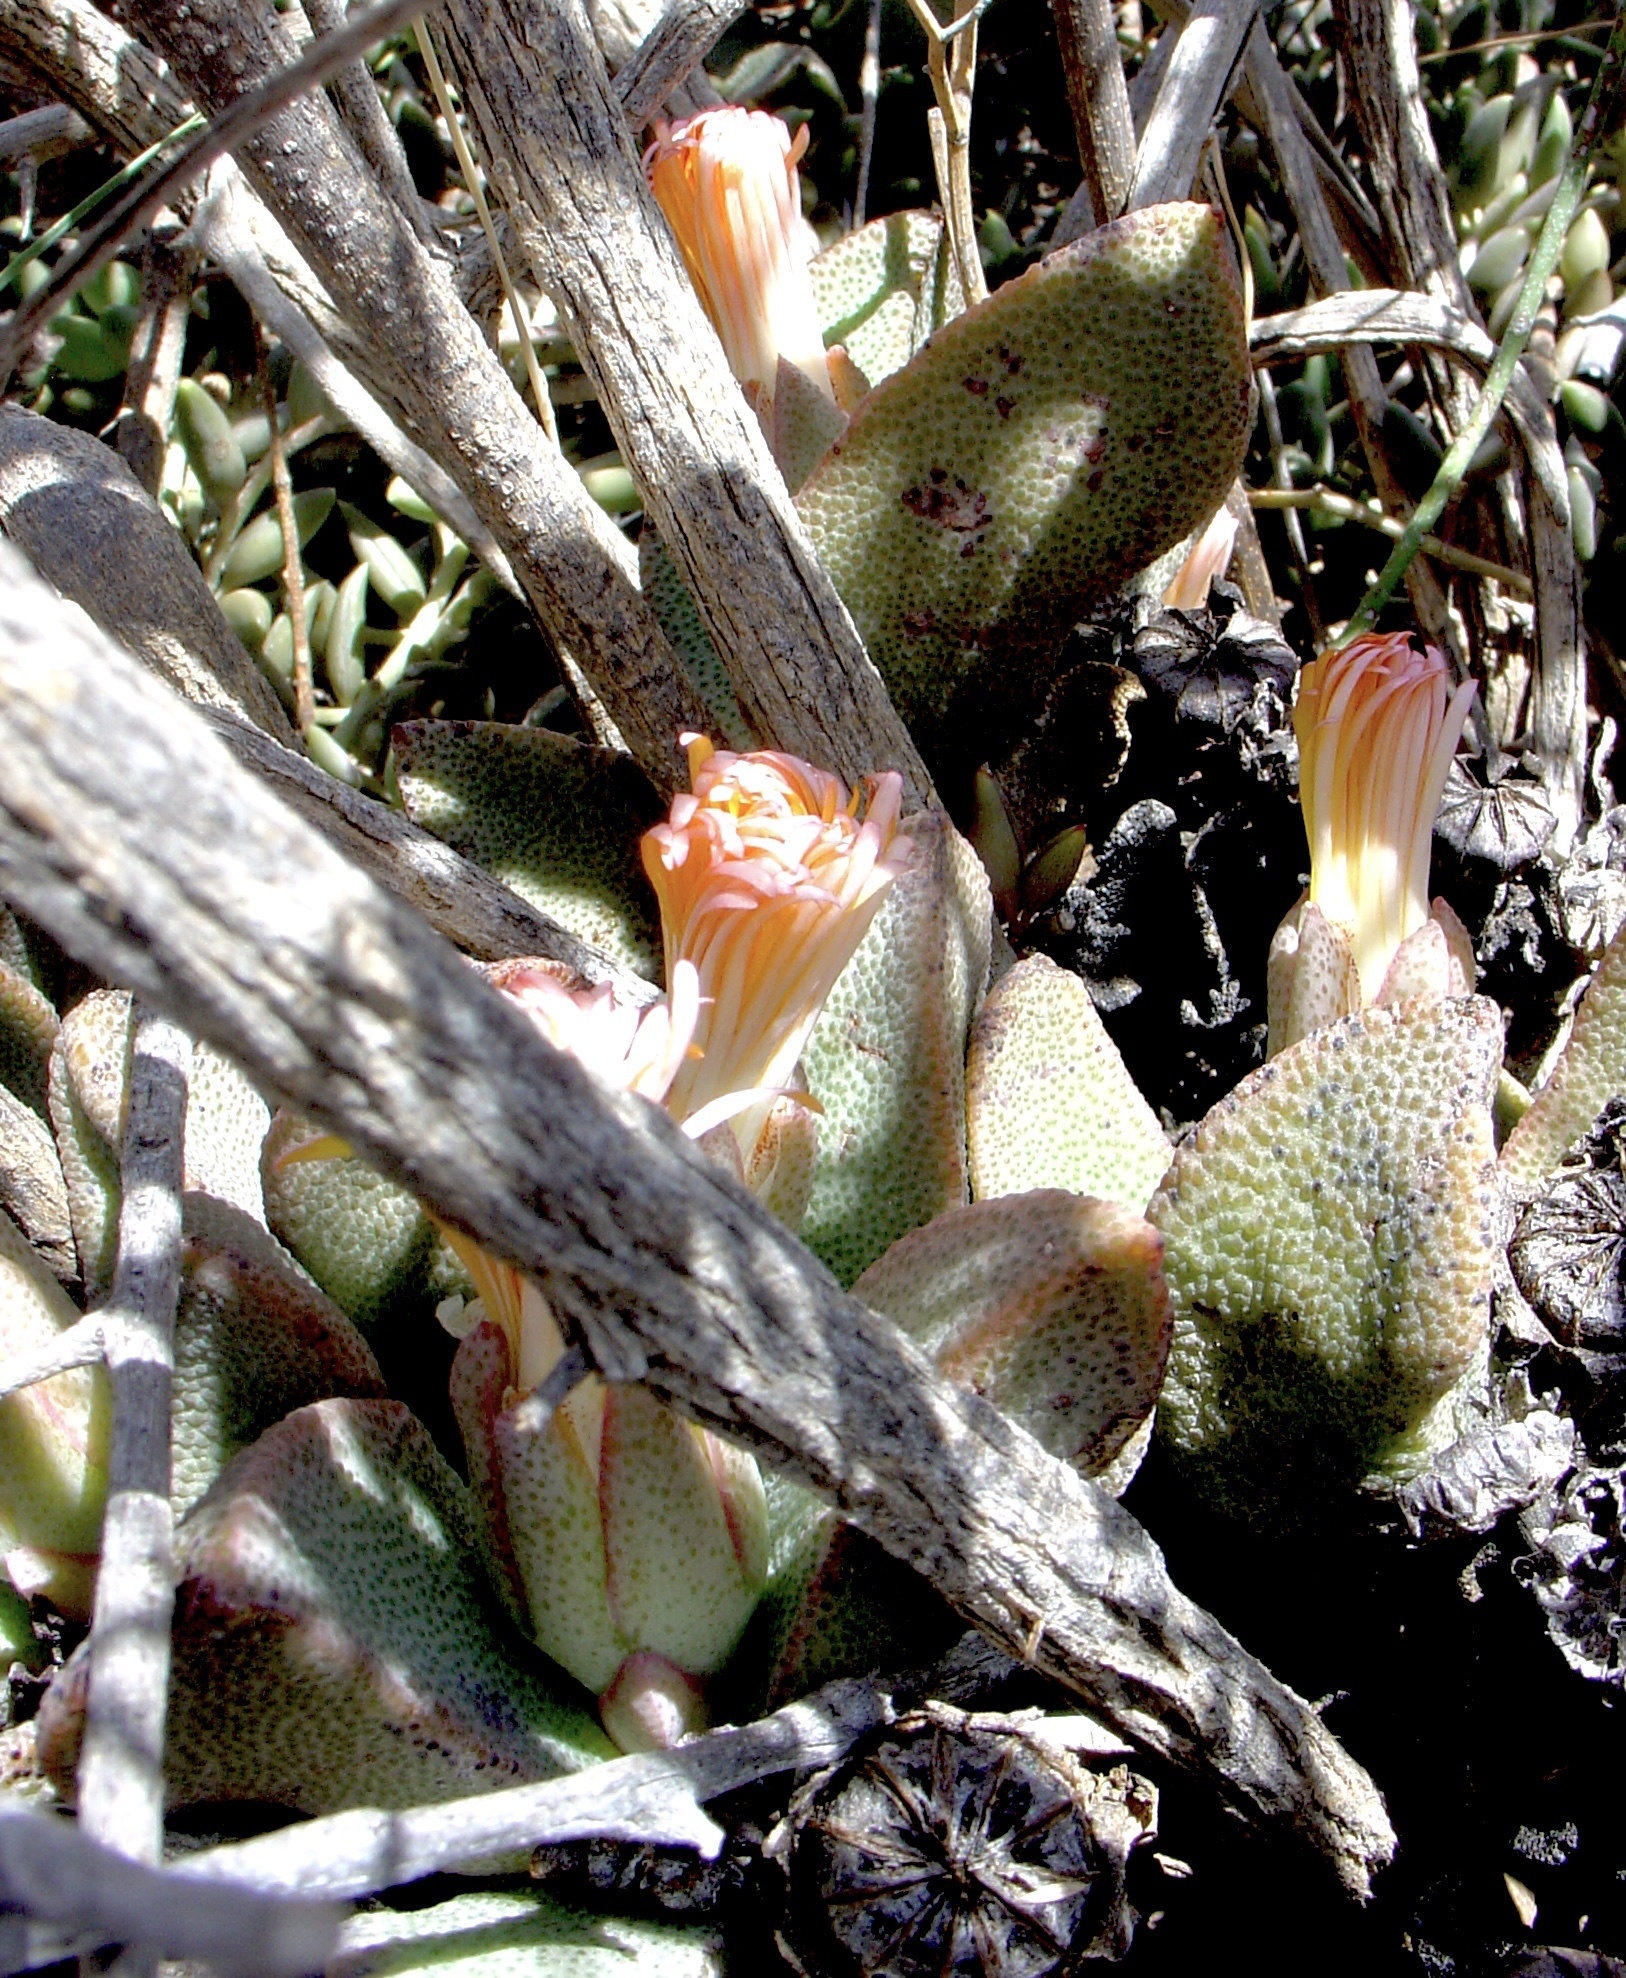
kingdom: Plantae
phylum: Tracheophyta
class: Magnoliopsida
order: Caryophyllales
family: Aizoaceae
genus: Pleiospilos
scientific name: Pleiospilos compactus
